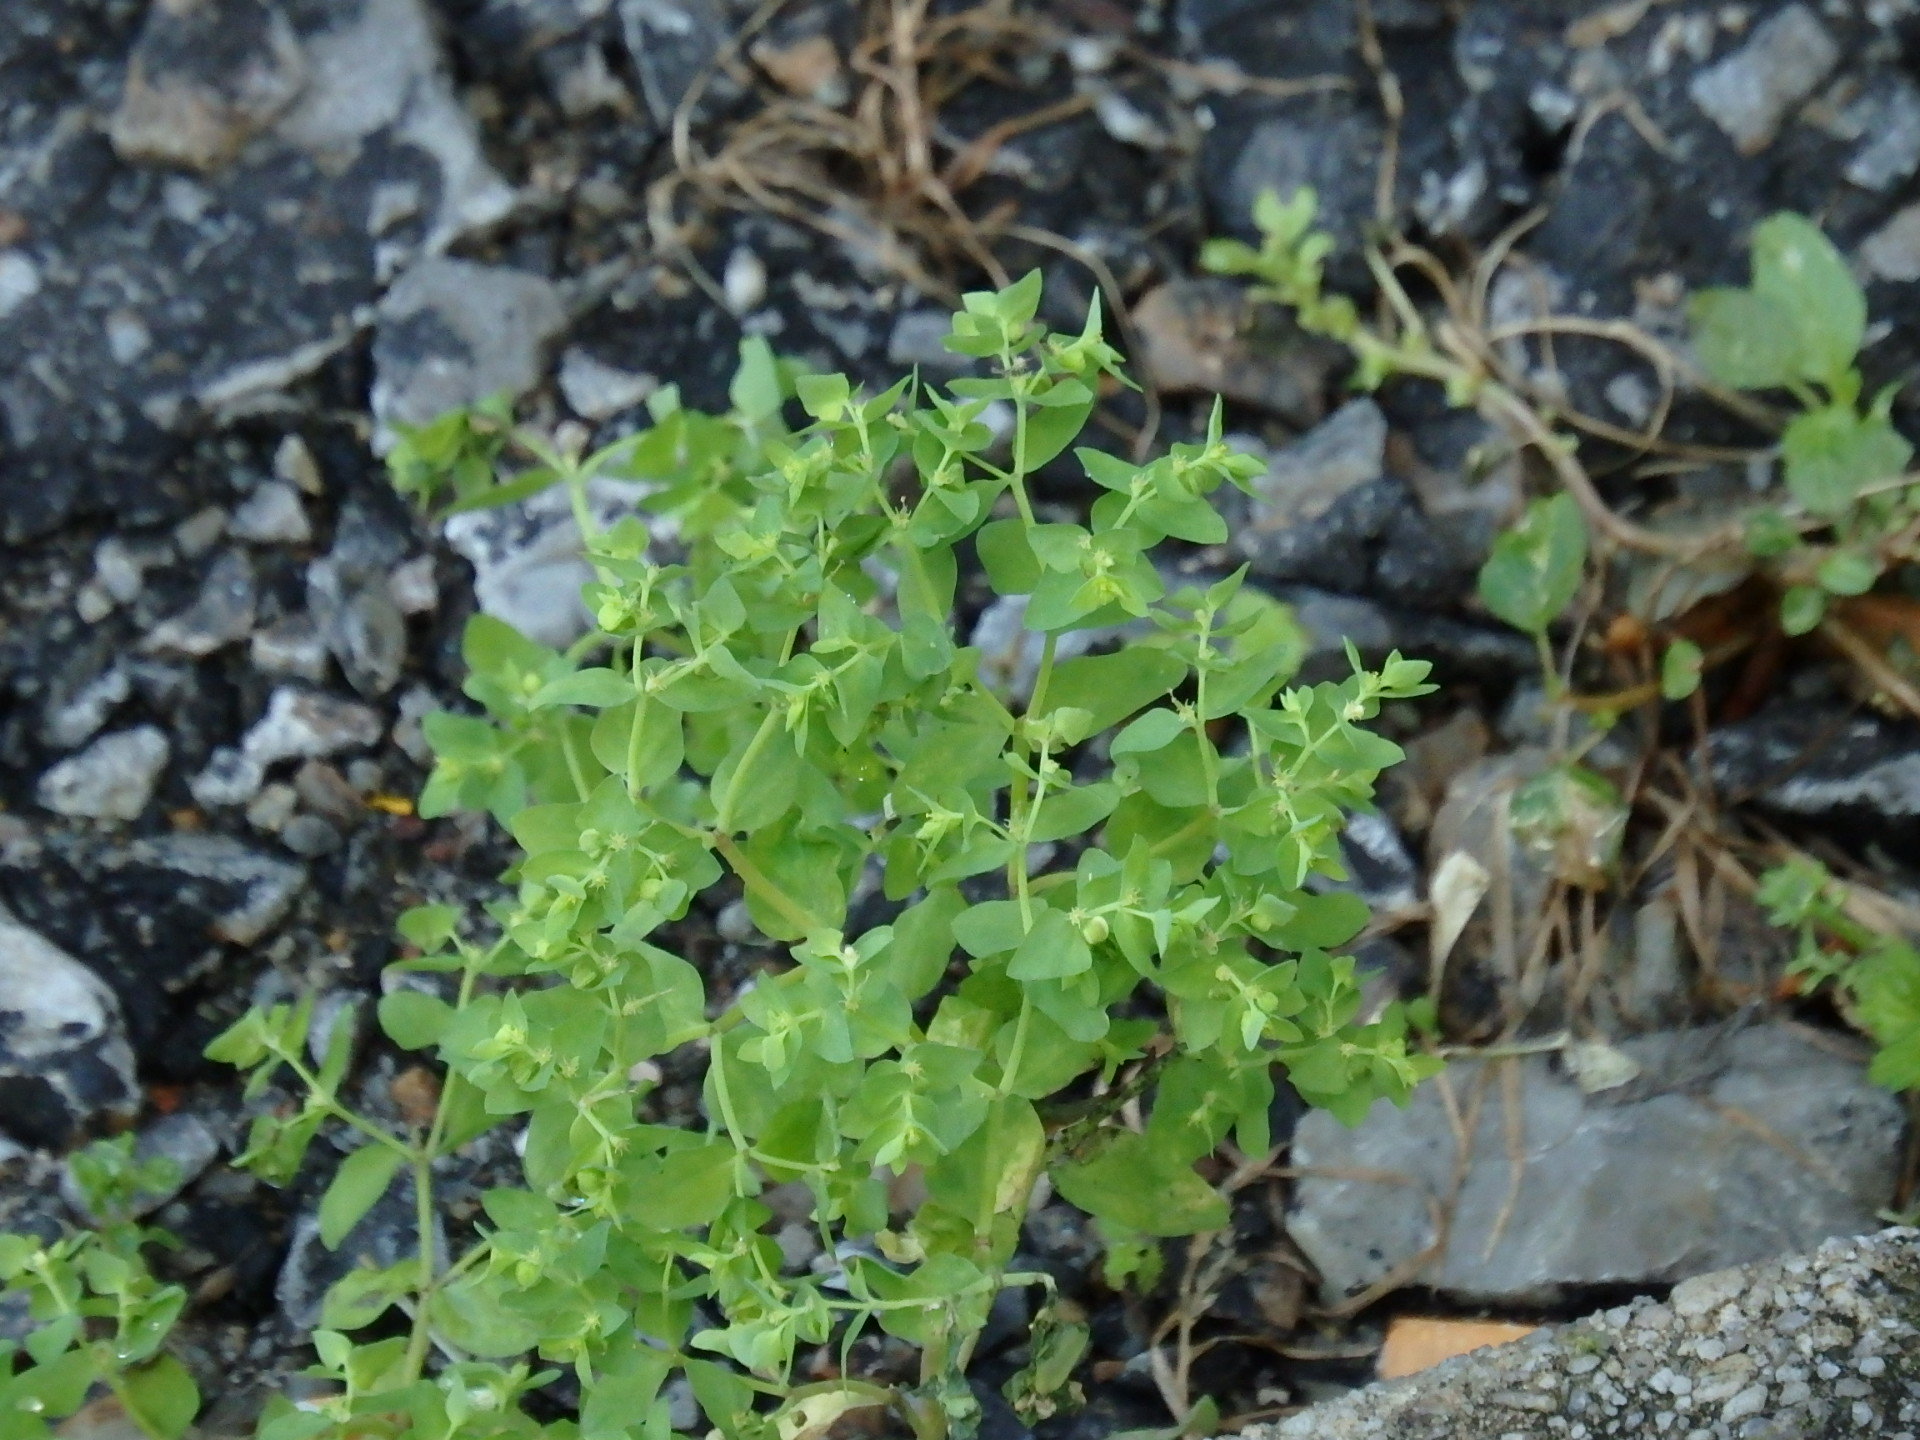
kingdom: Plantae
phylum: Tracheophyta
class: Magnoliopsida
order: Malpighiales
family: Euphorbiaceae
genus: Euphorbia
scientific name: Euphorbia peplus
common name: Petty spurge
